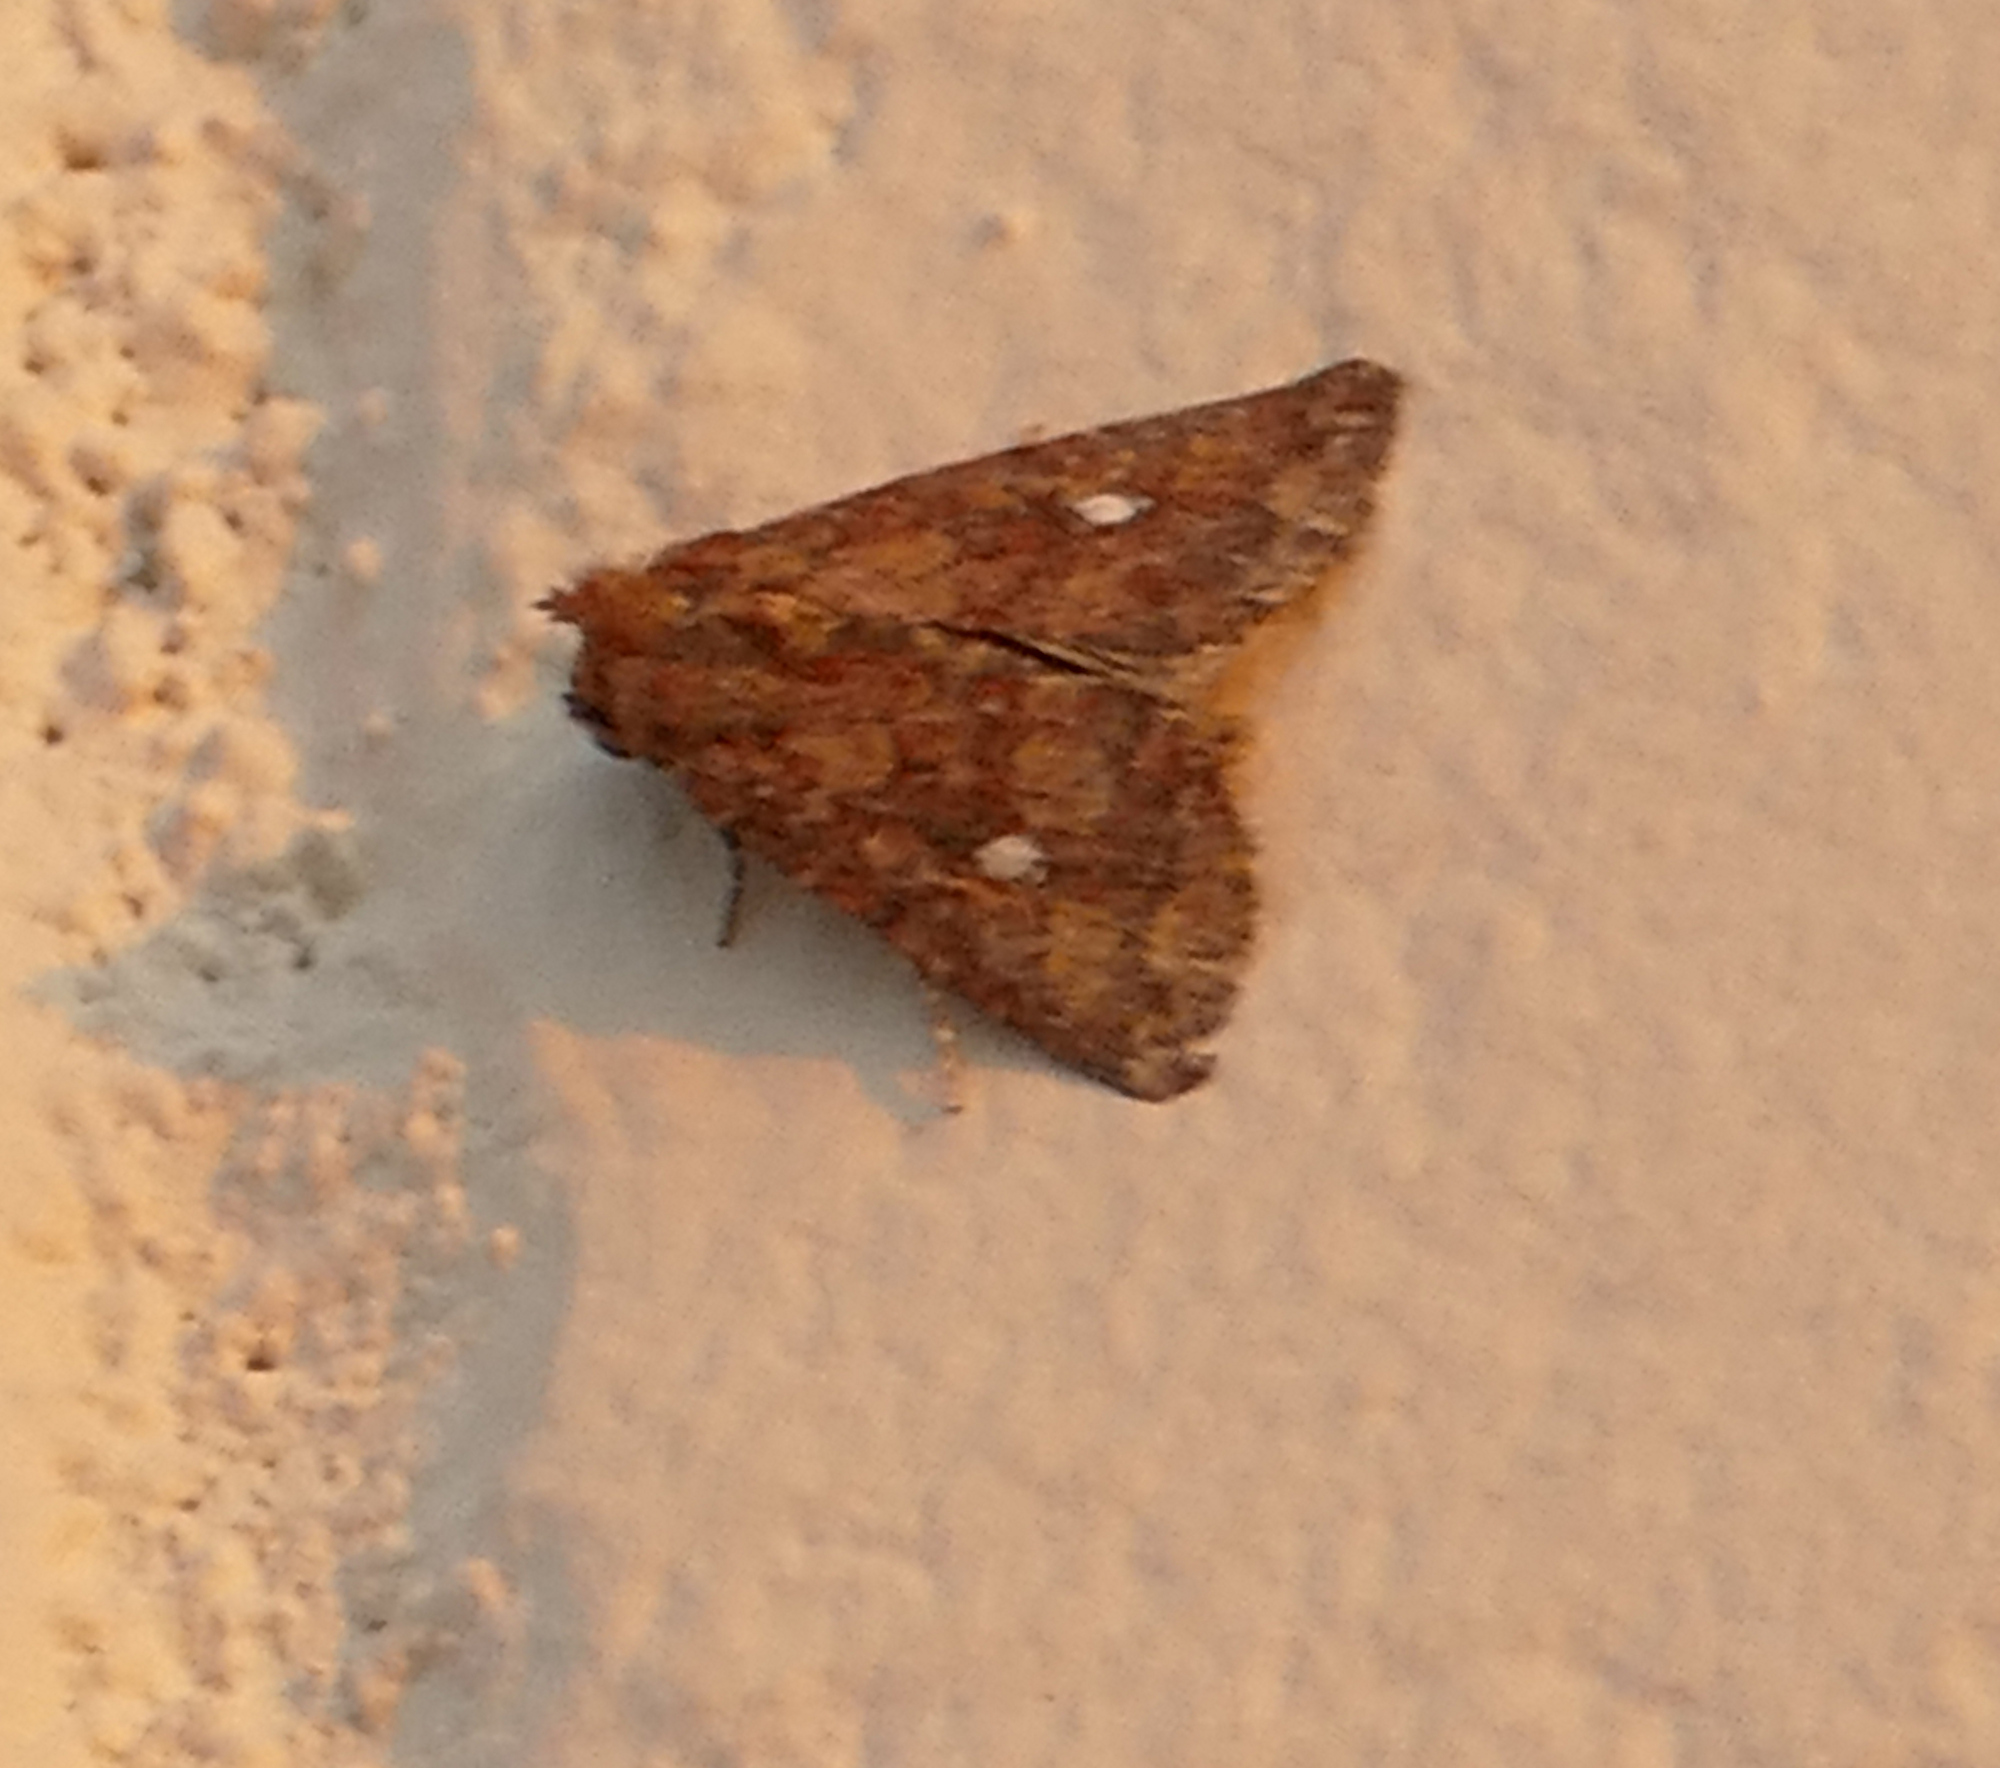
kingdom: Animalia
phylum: Arthropoda
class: Insecta
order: Lepidoptera
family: Noctuidae
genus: Condica
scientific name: Condica mobilis
